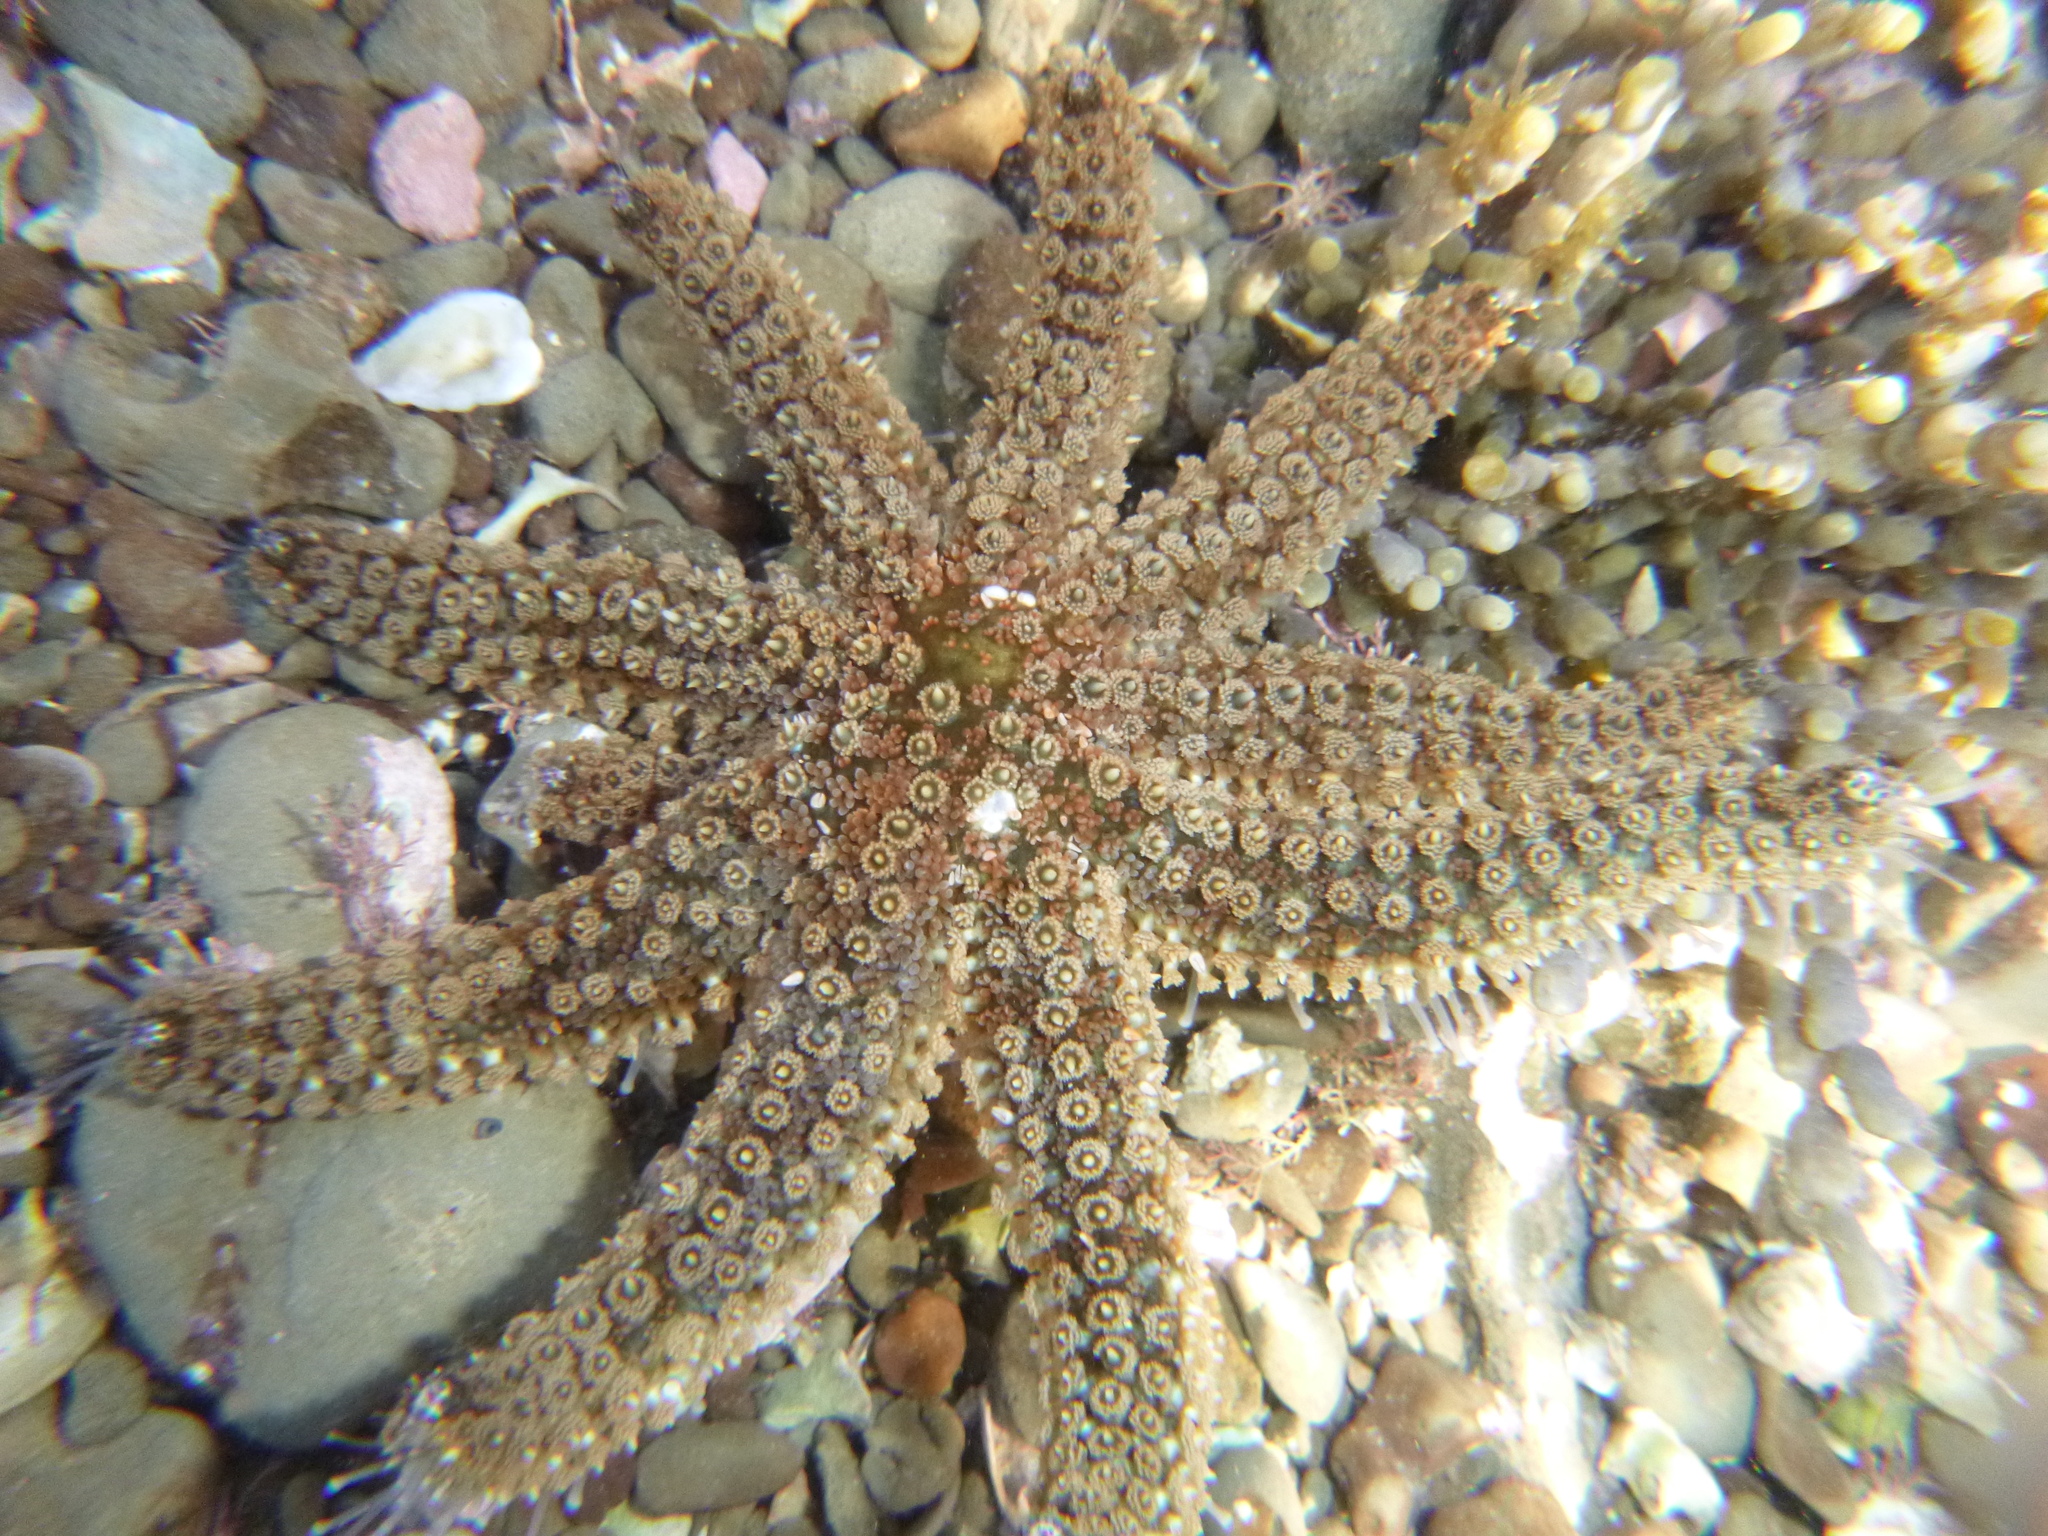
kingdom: Animalia
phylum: Echinodermata
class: Asteroidea
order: Forcipulatida
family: Asteriidae
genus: Coscinasterias
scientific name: Coscinasterias muricata
